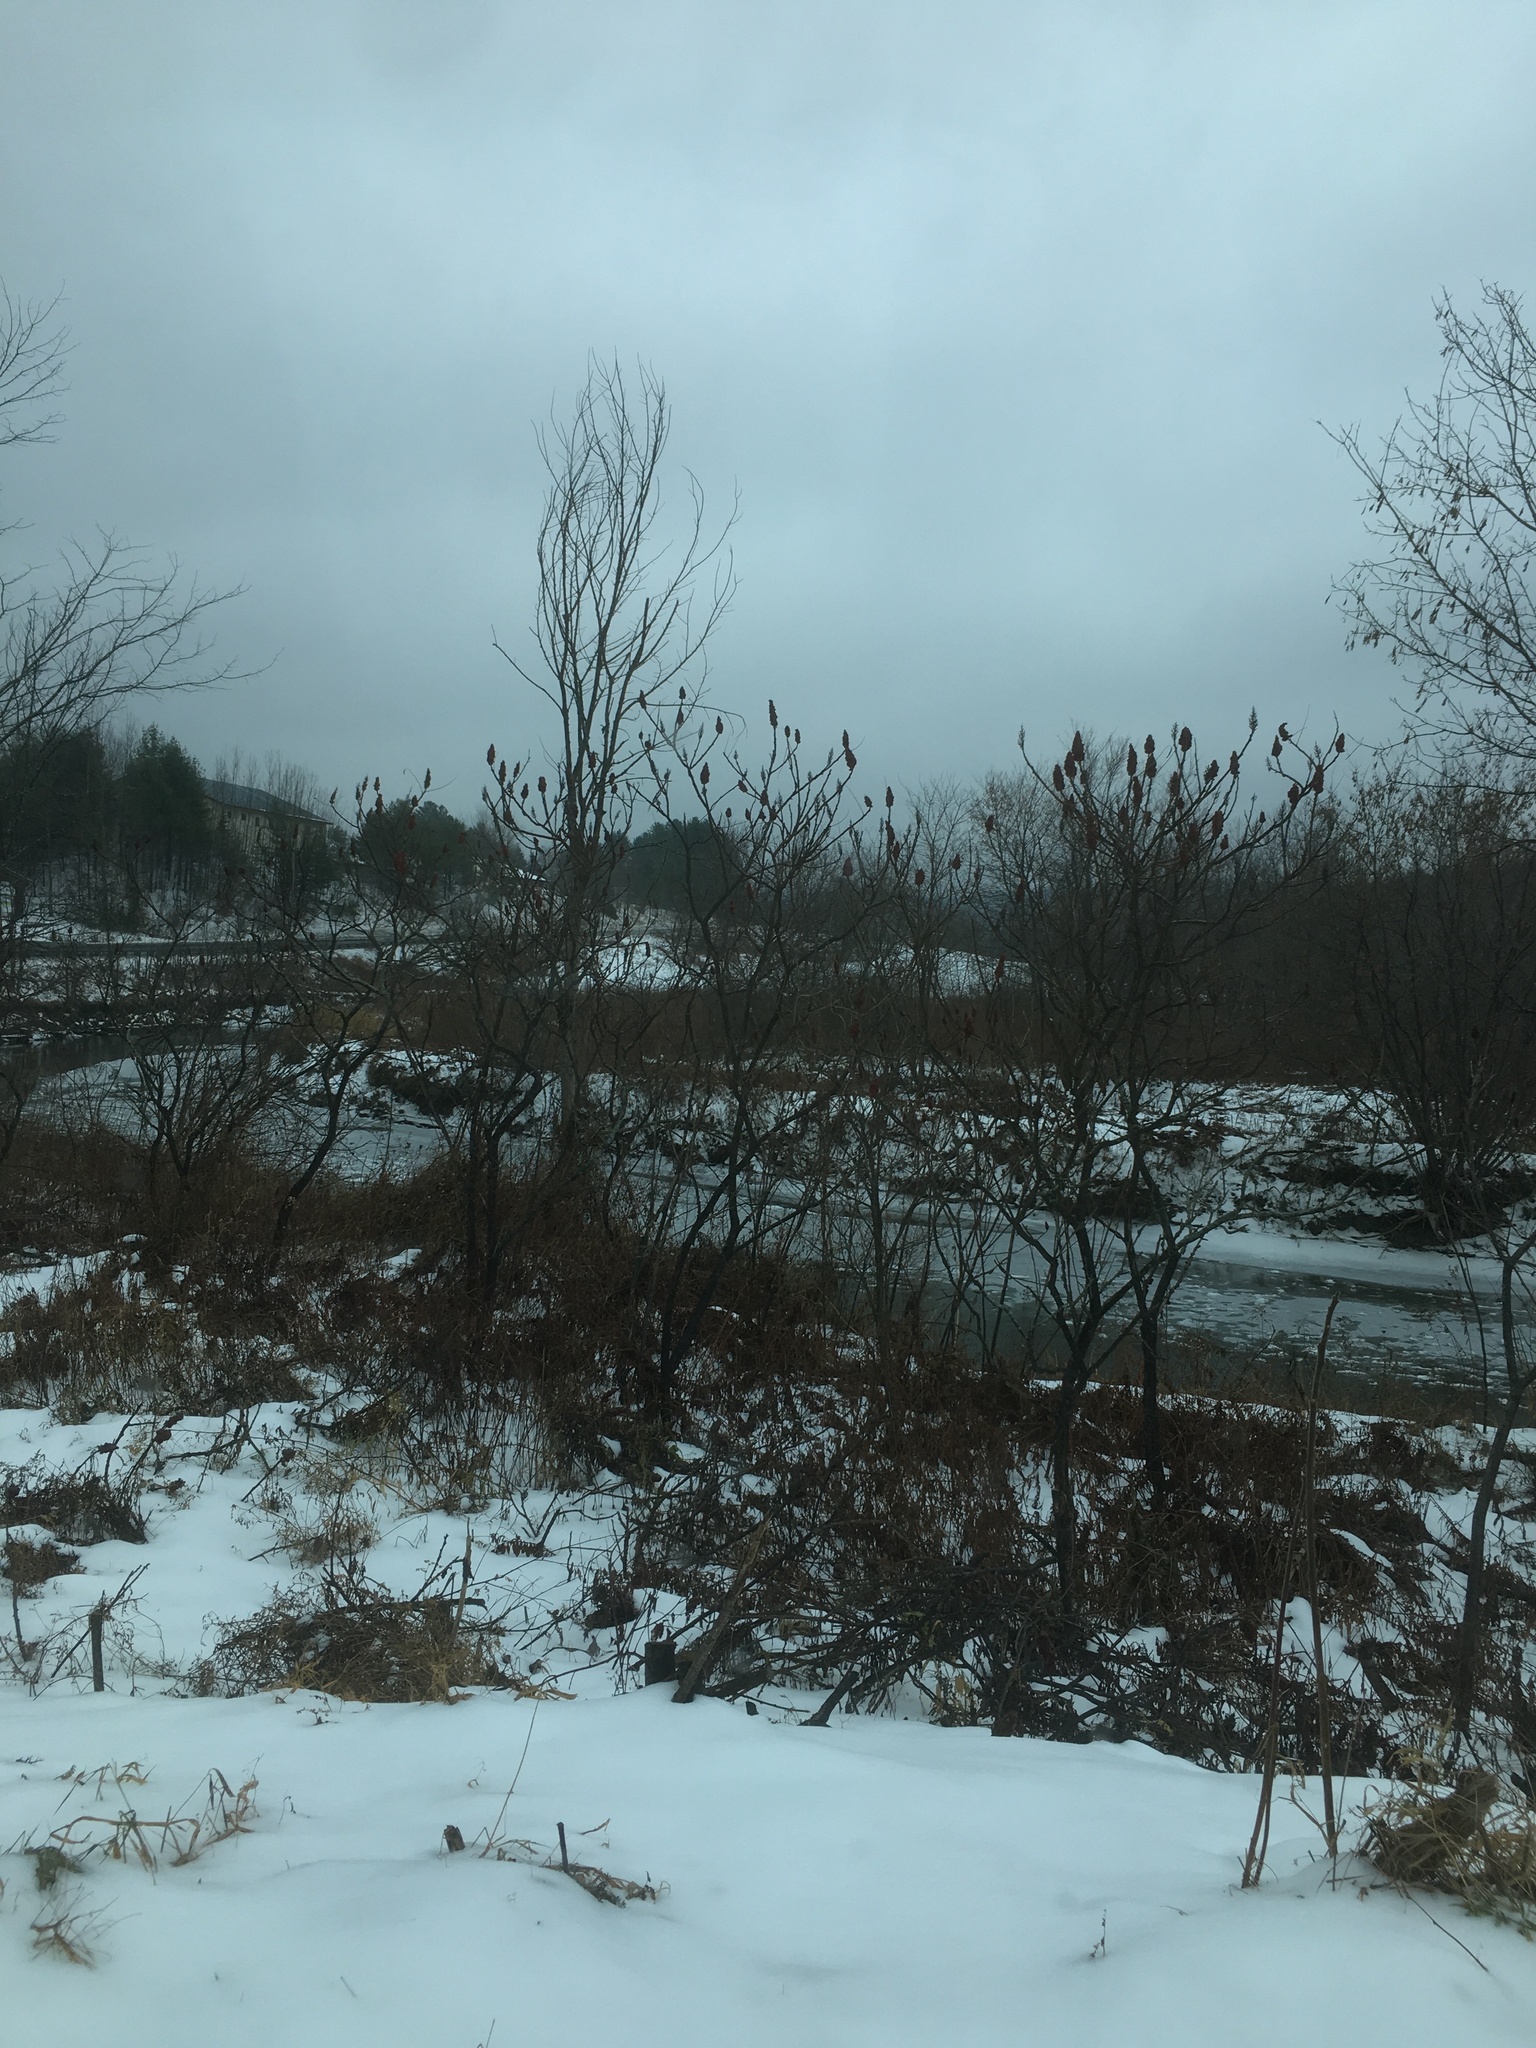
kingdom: Plantae
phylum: Tracheophyta
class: Magnoliopsida
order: Sapindales
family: Anacardiaceae
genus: Rhus
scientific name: Rhus typhina
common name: Staghorn sumac
